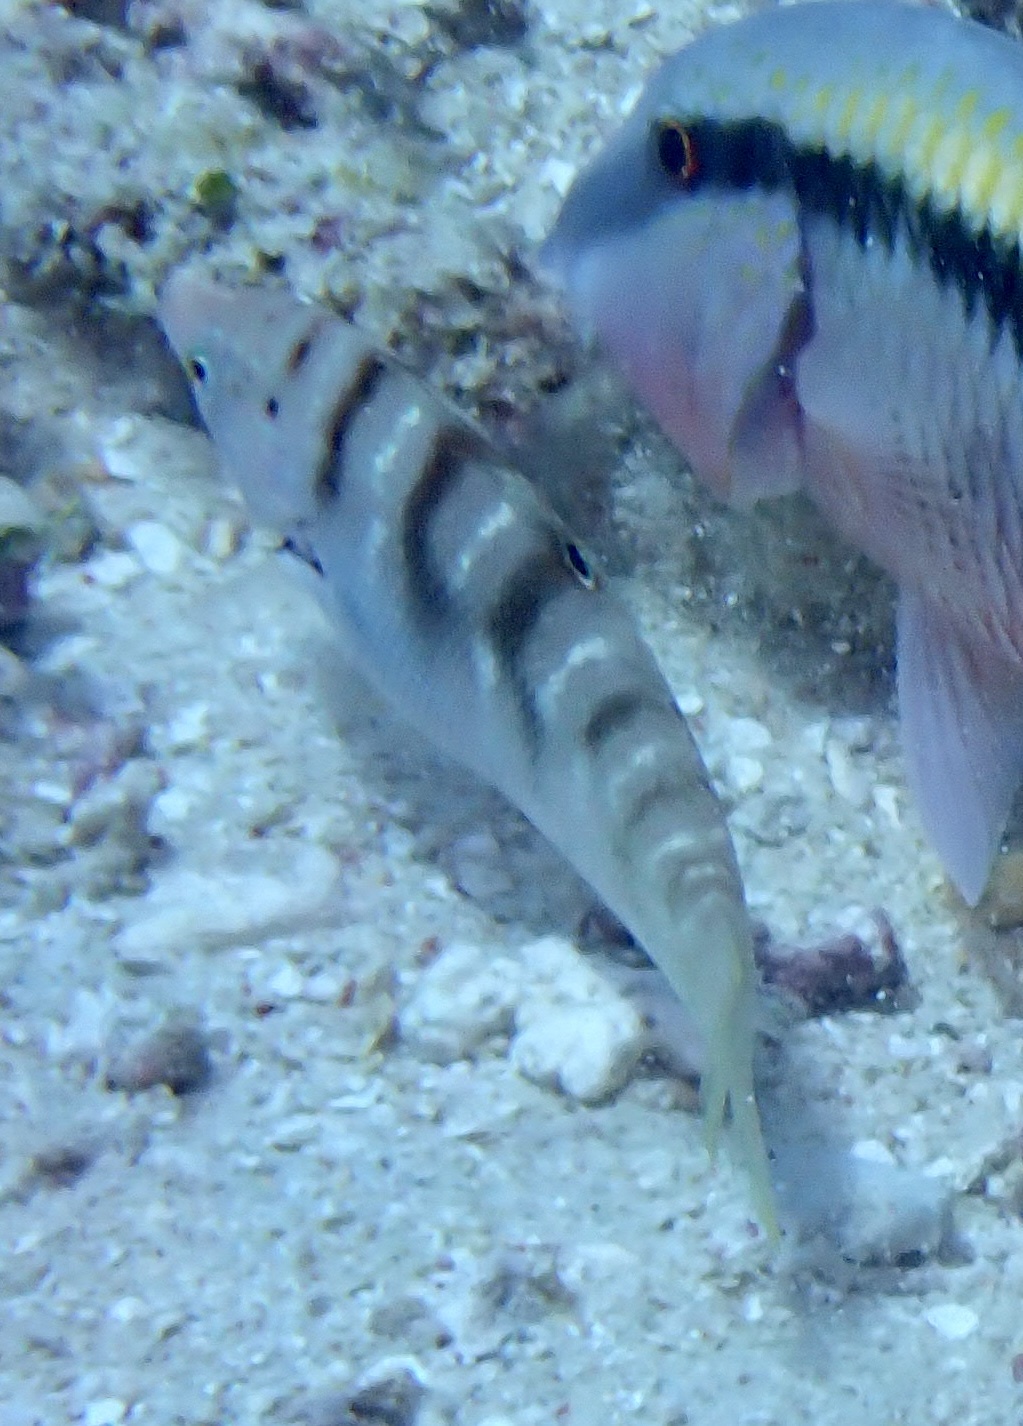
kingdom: Animalia
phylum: Chordata
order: Perciformes
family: Labridae
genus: Coris
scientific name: Coris batuensis
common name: Batu coris
